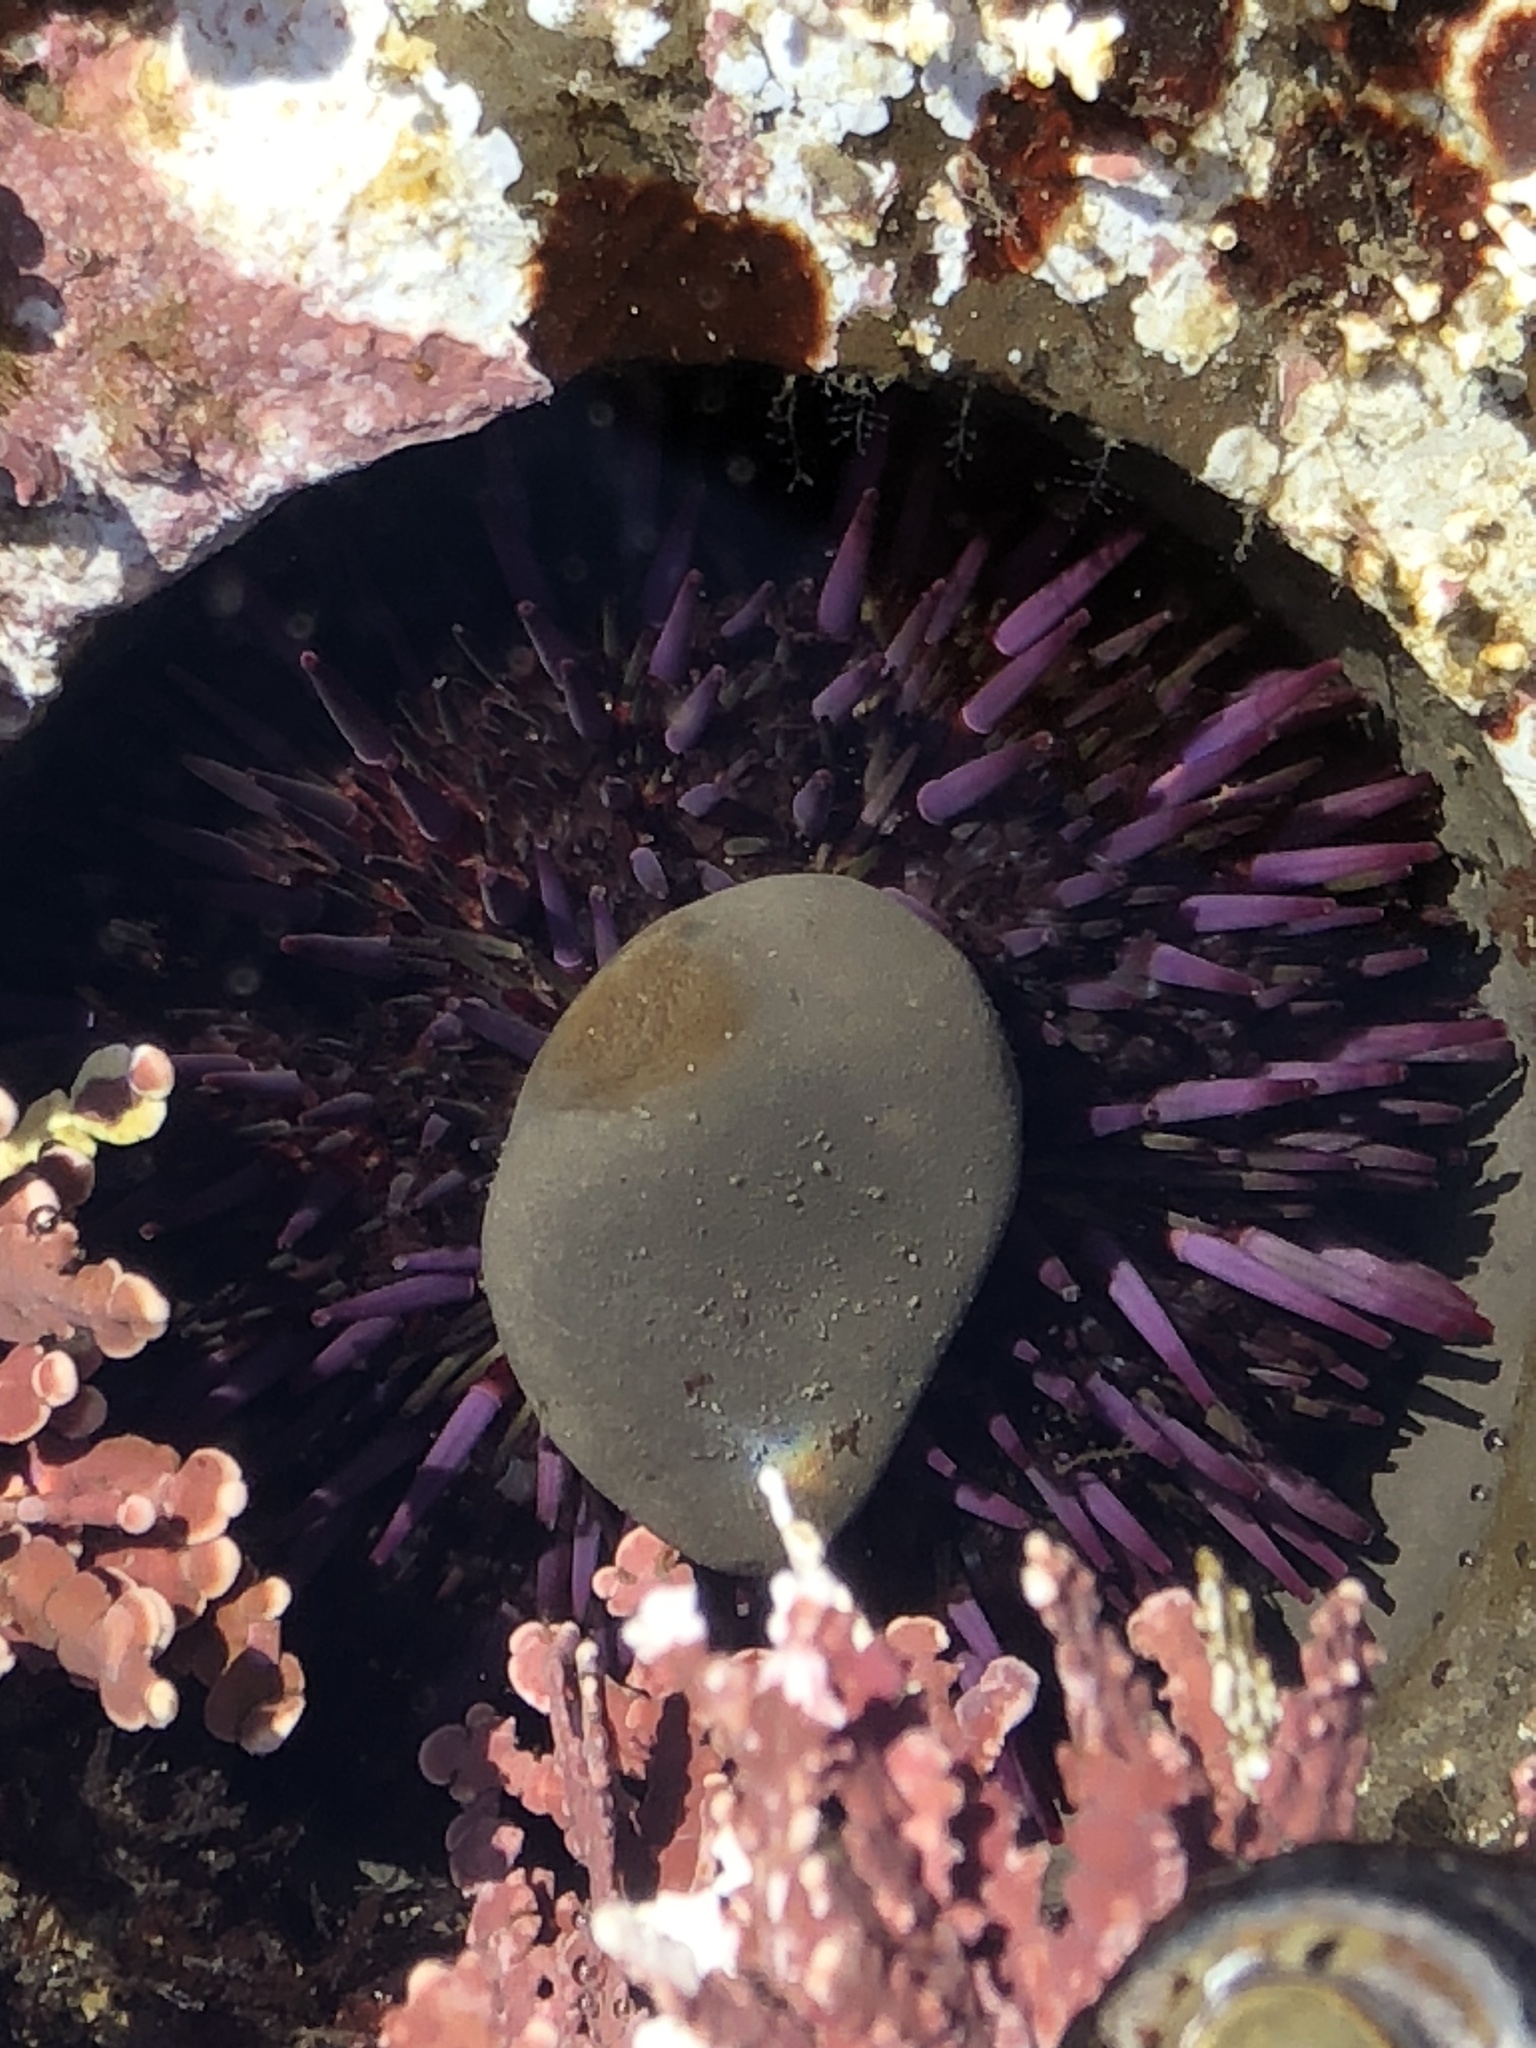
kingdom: Animalia
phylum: Echinodermata
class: Echinoidea
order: Camarodonta
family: Strongylocentrotidae
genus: Strongylocentrotus
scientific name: Strongylocentrotus purpuratus
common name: Purple sea urchin
